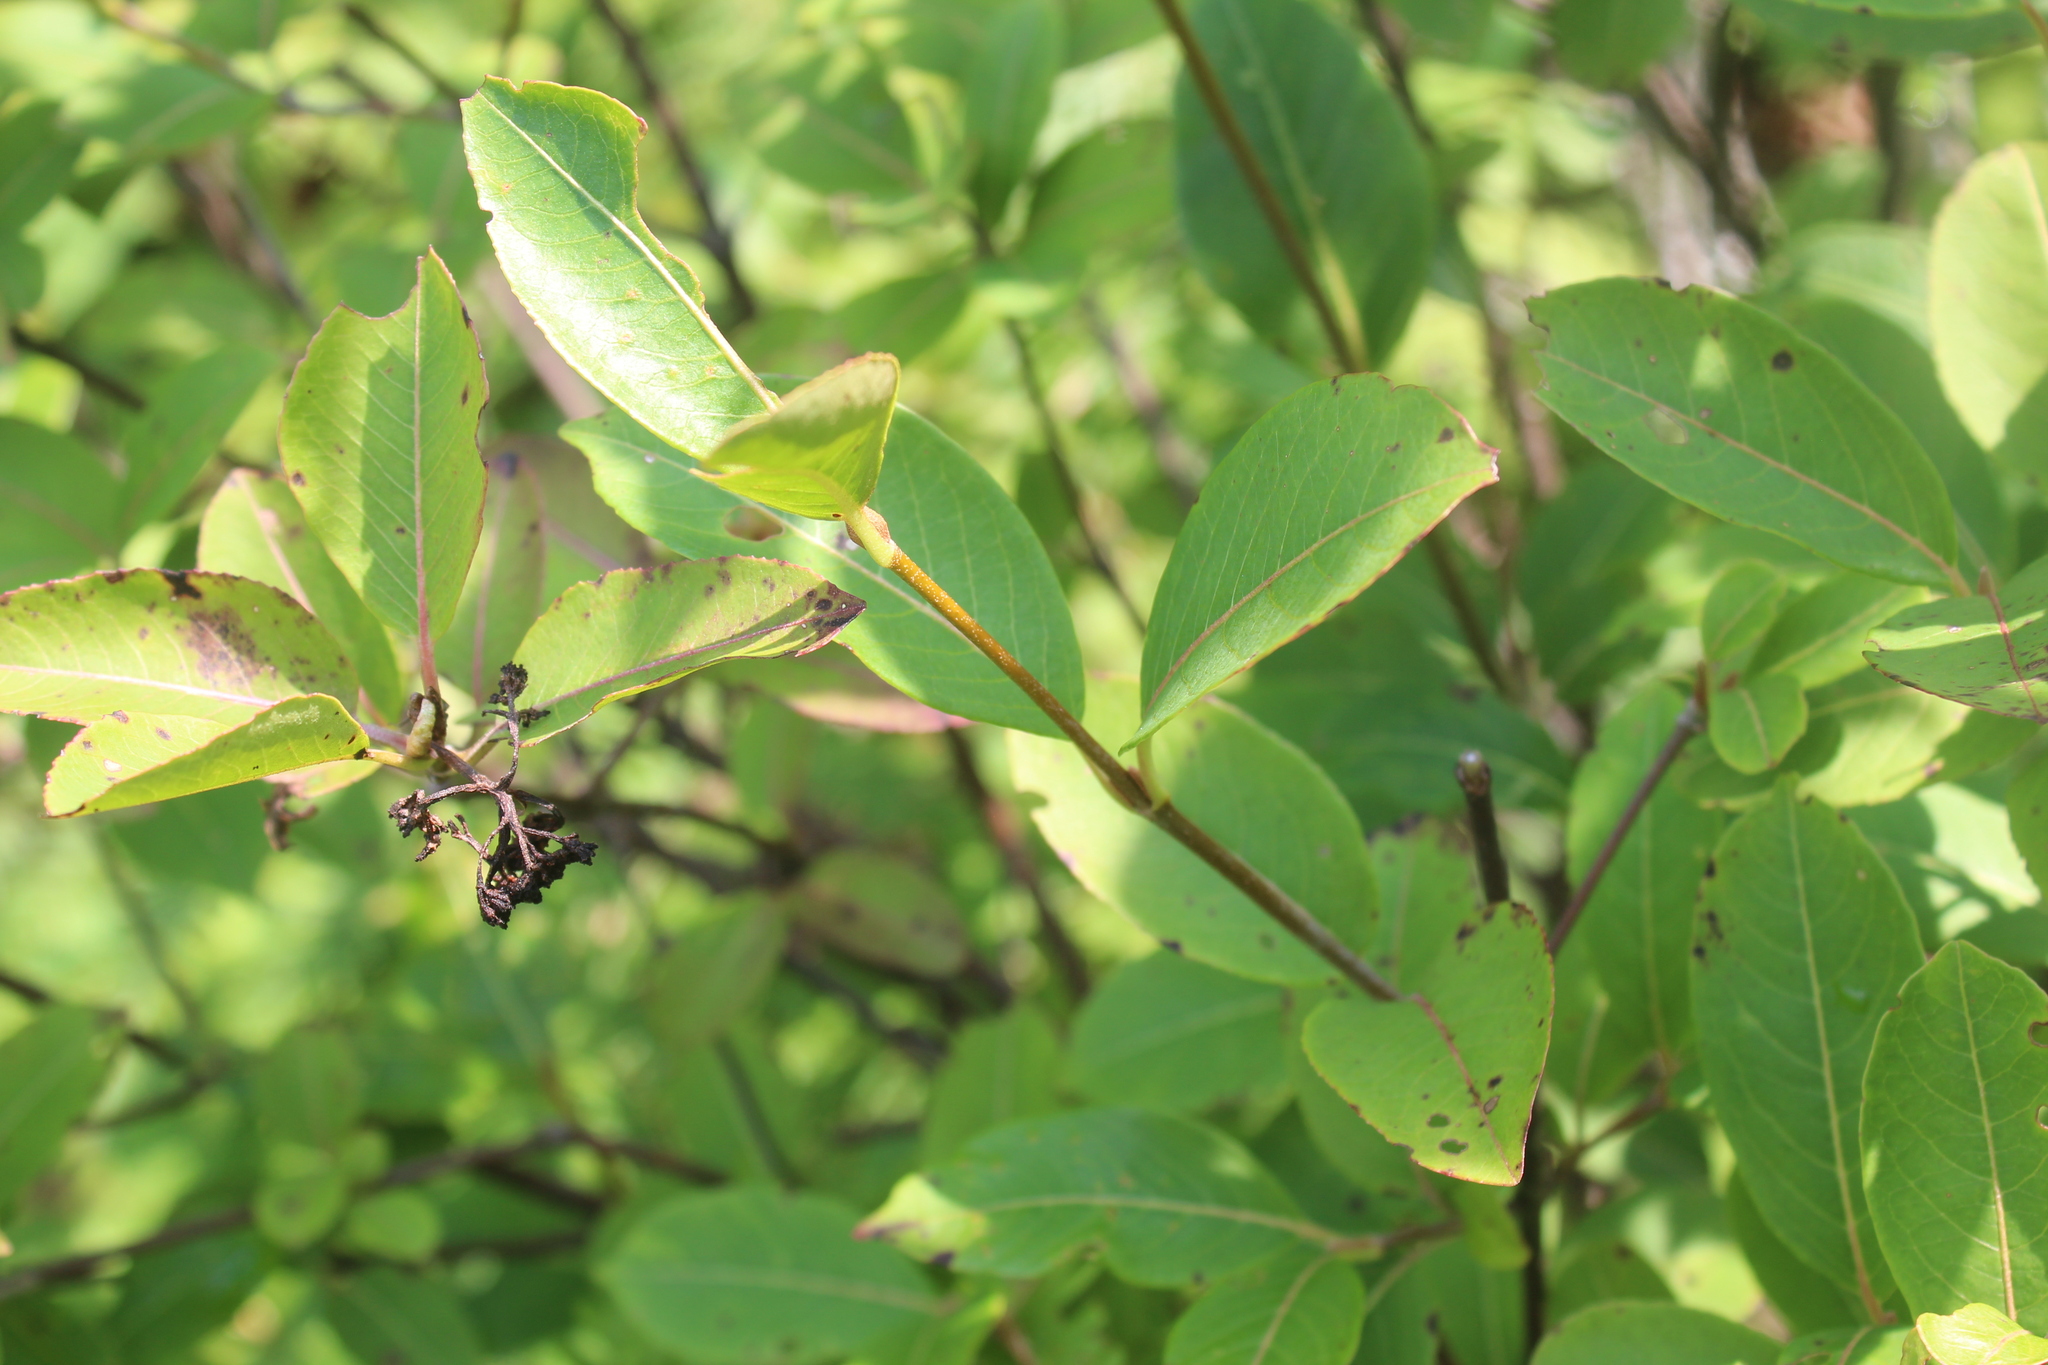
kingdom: Plantae
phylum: Tracheophyta
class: Magnoliopsida
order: Dipsacales
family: Viburnaceae
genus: Viburnum
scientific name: Viburnum cassinoides
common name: Swamp haw
